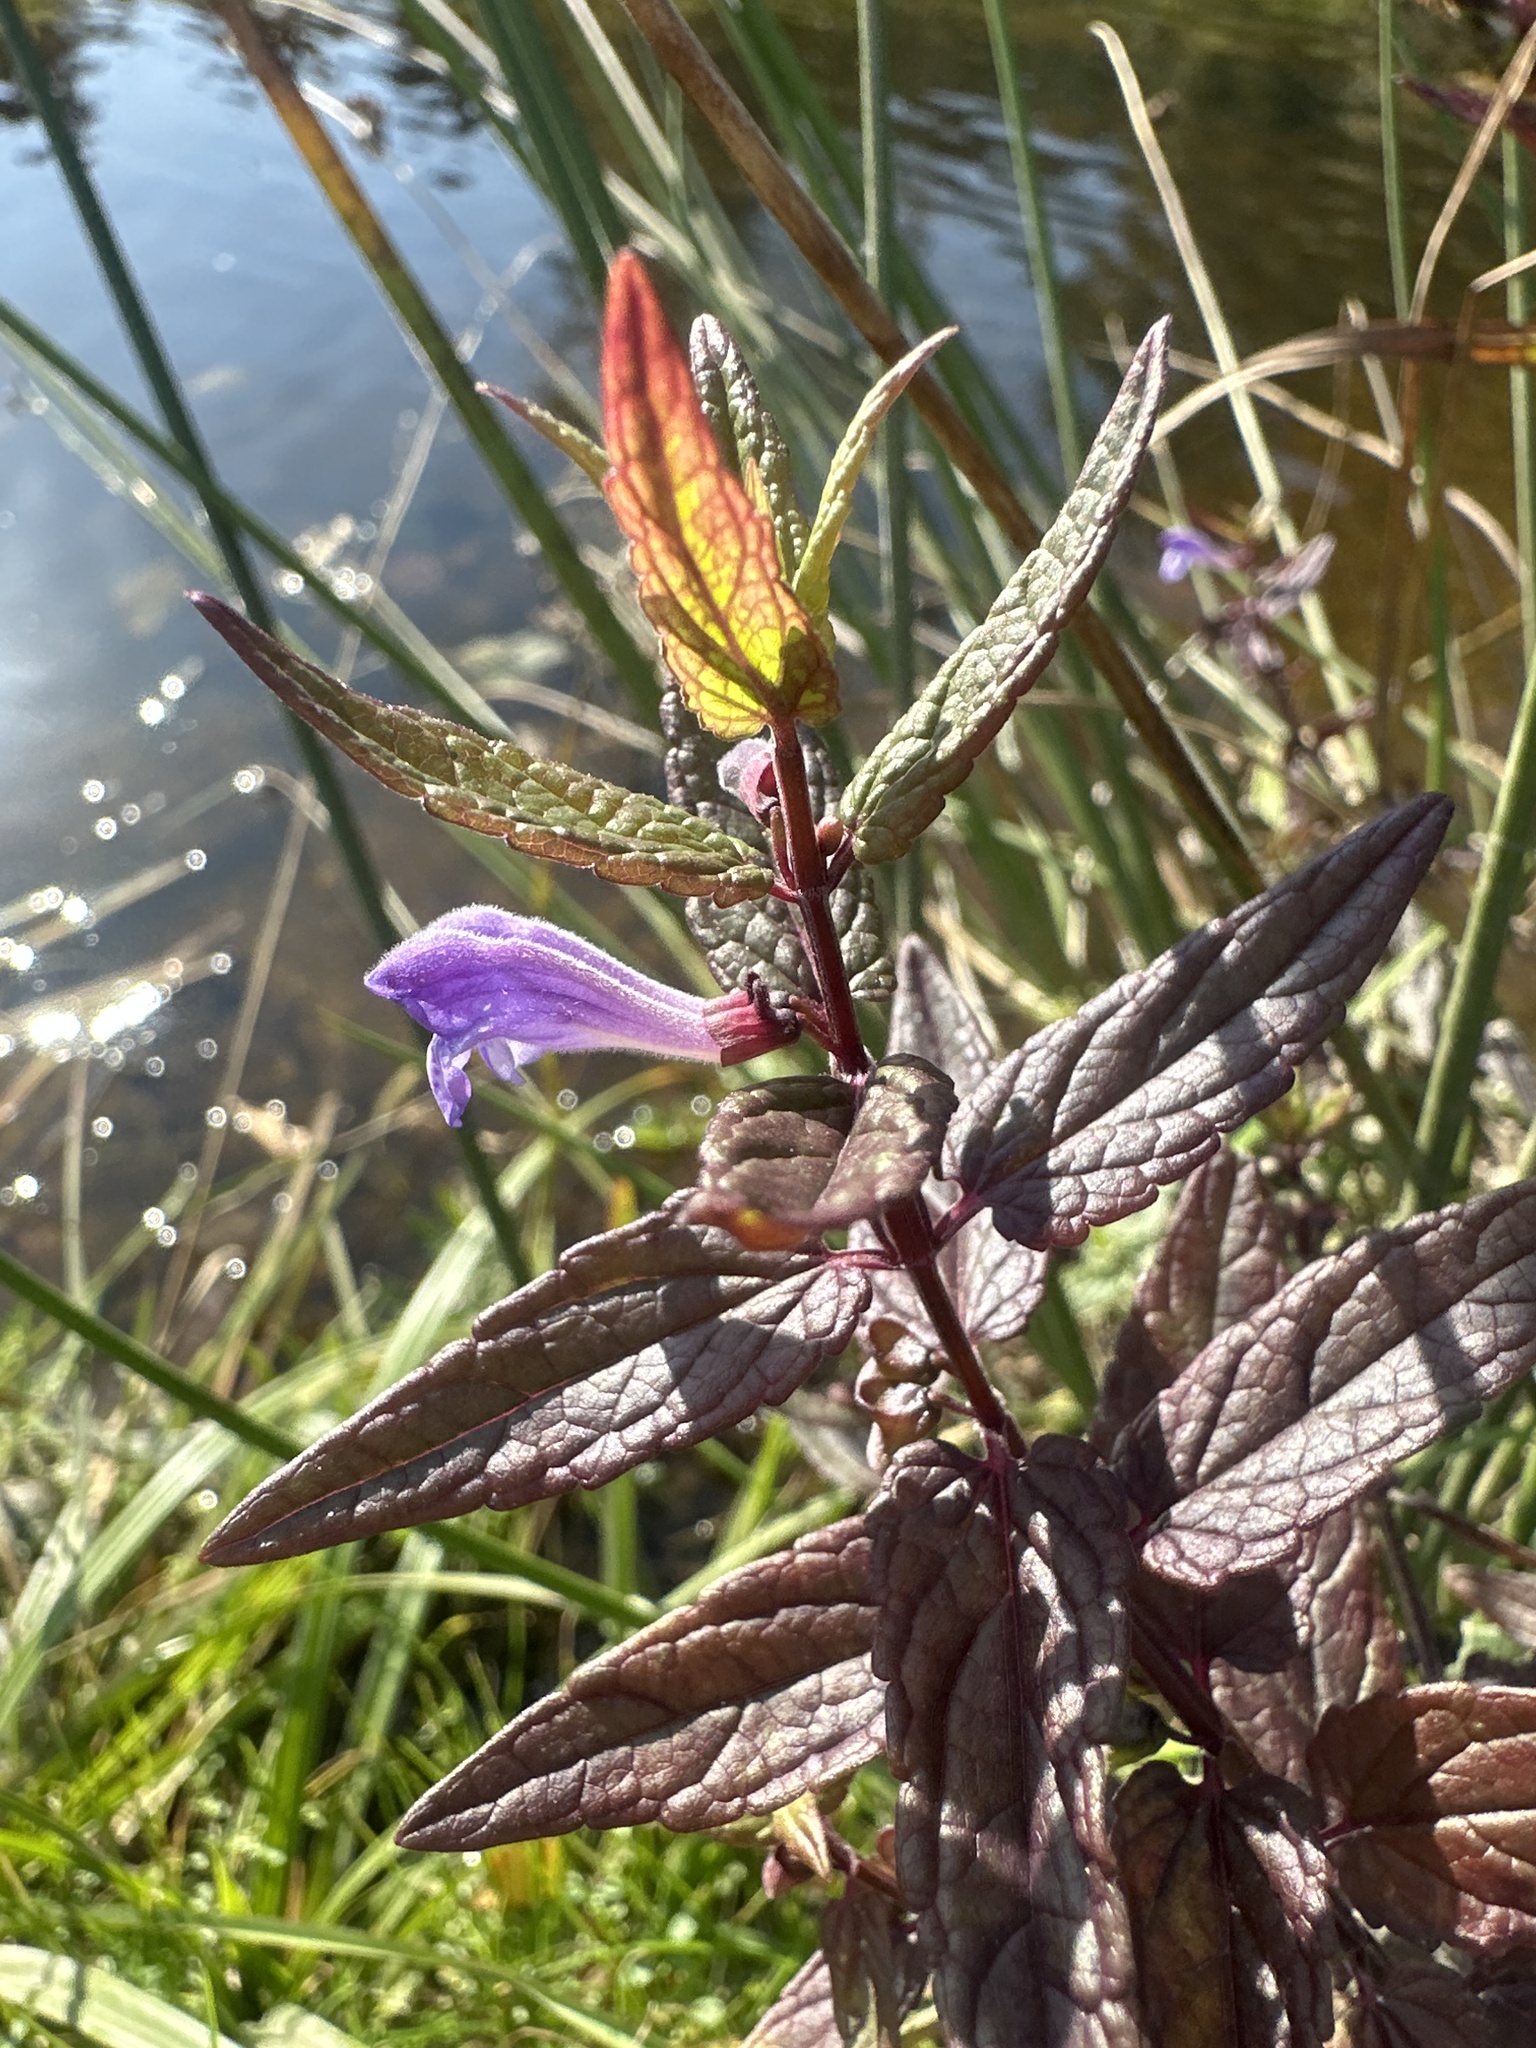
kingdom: Plantae
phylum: Tracheophyta
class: Magnoliopsida
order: Lamiales
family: Lamiaceae
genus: Scutellaria
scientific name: Scutellaria galericulata
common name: Skullcap
